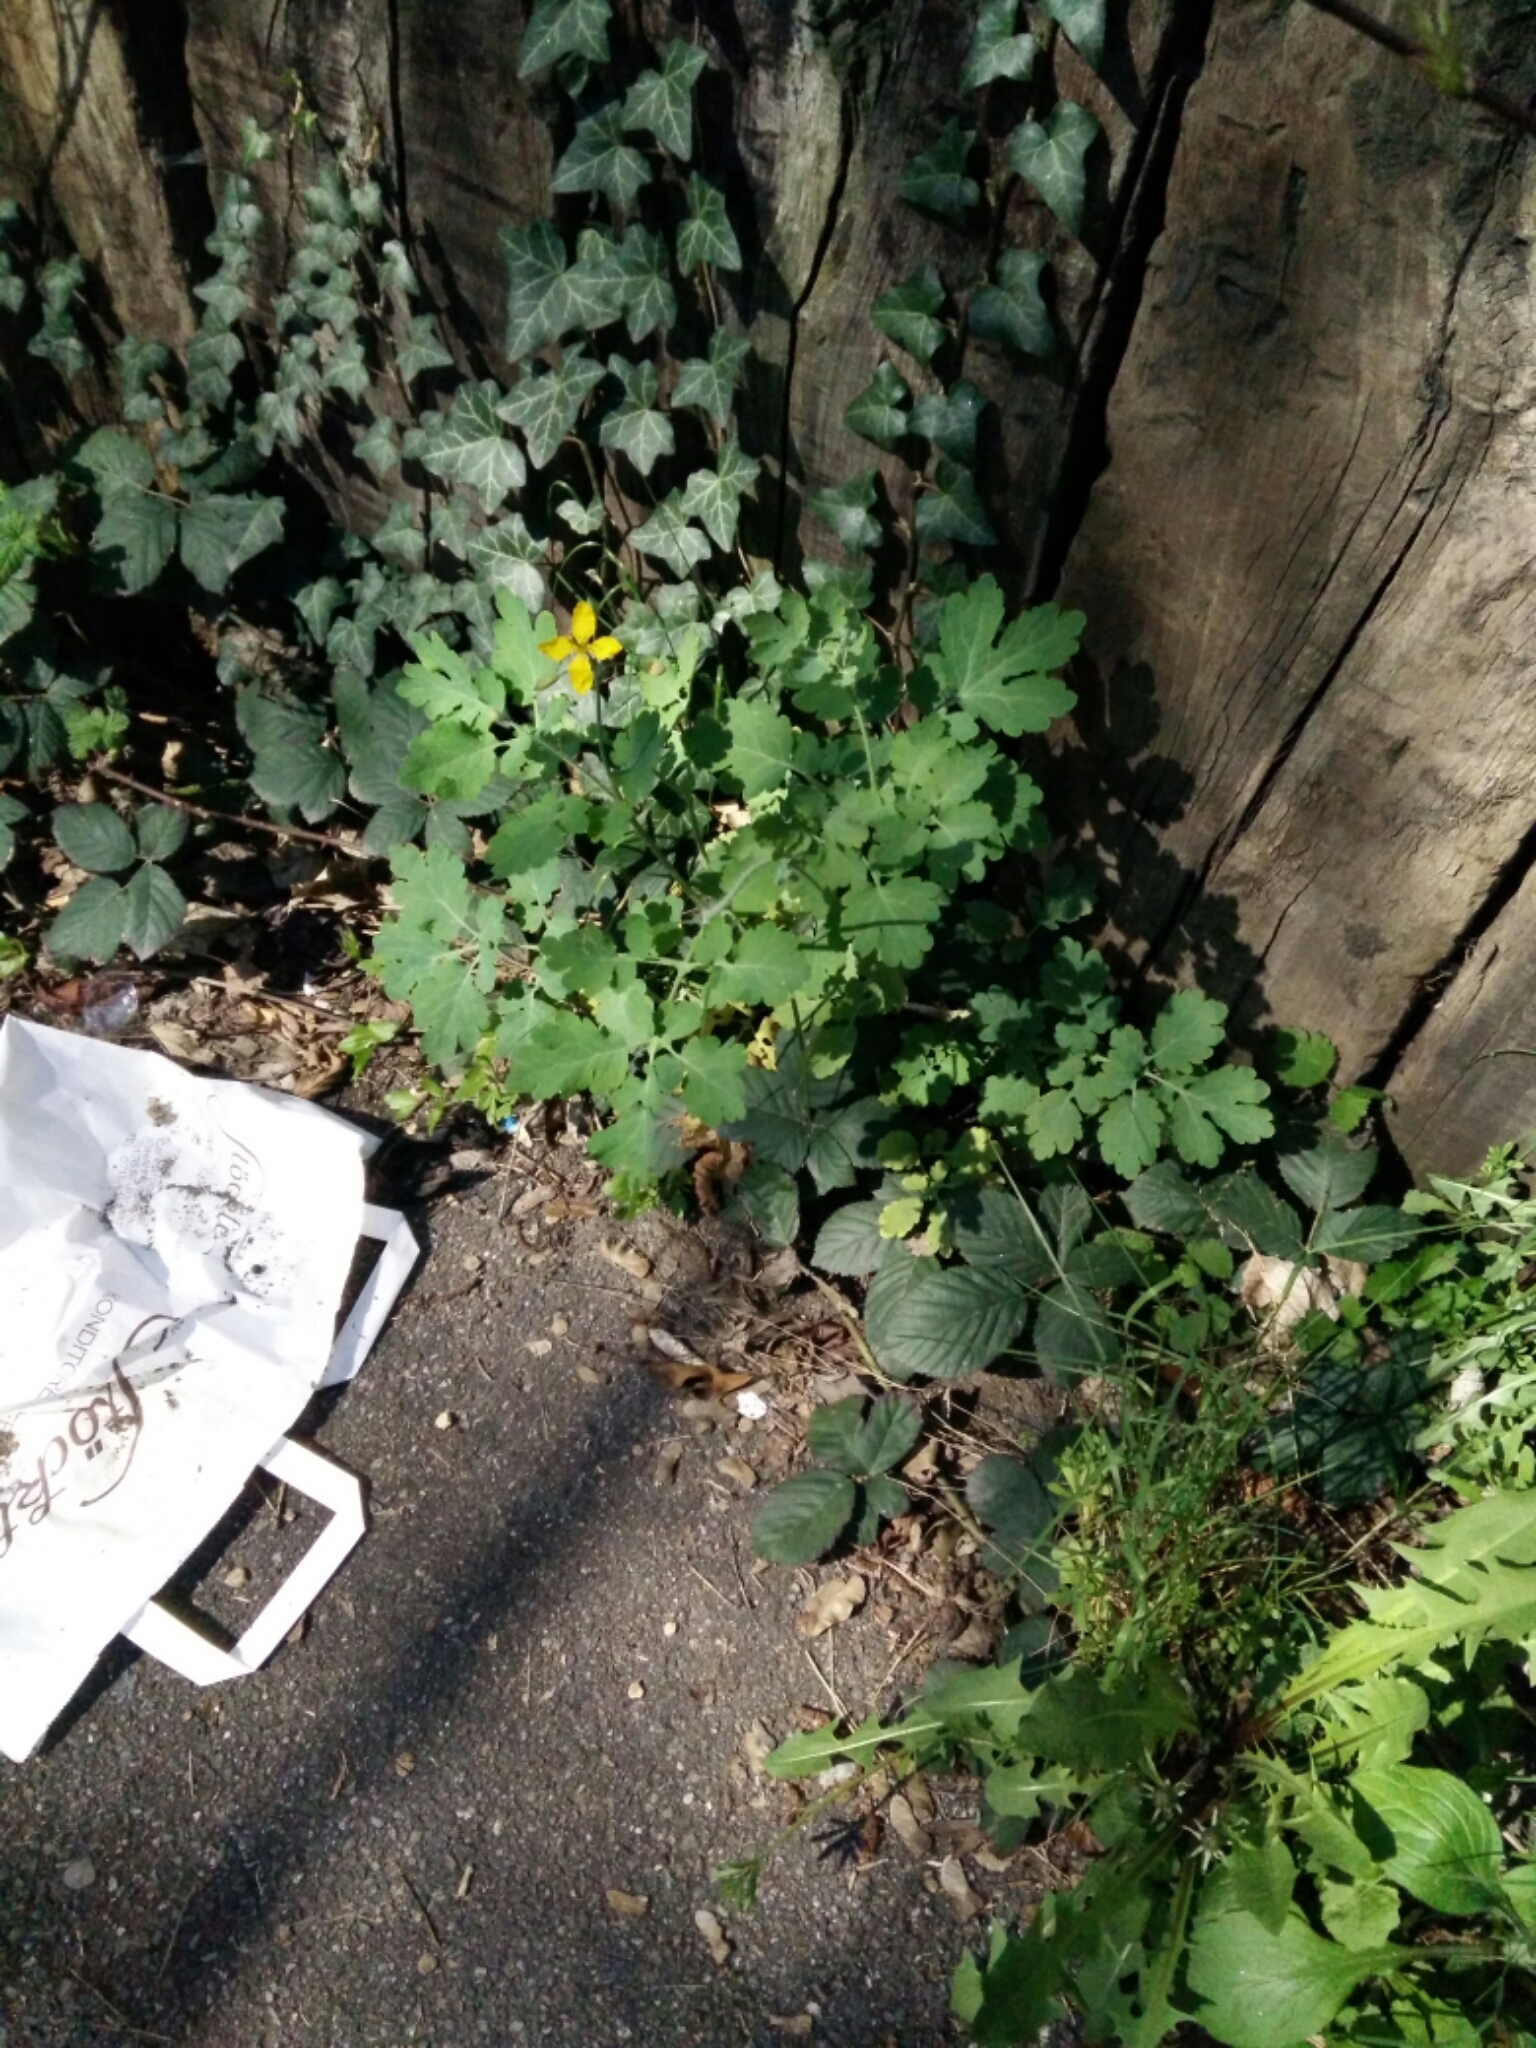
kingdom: Plantae
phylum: Tracheophyta
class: Magnoliopsida
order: Ranunculales
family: Papaveraceae
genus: Chelidonium
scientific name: Chelidonium majus
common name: Greater celandine
